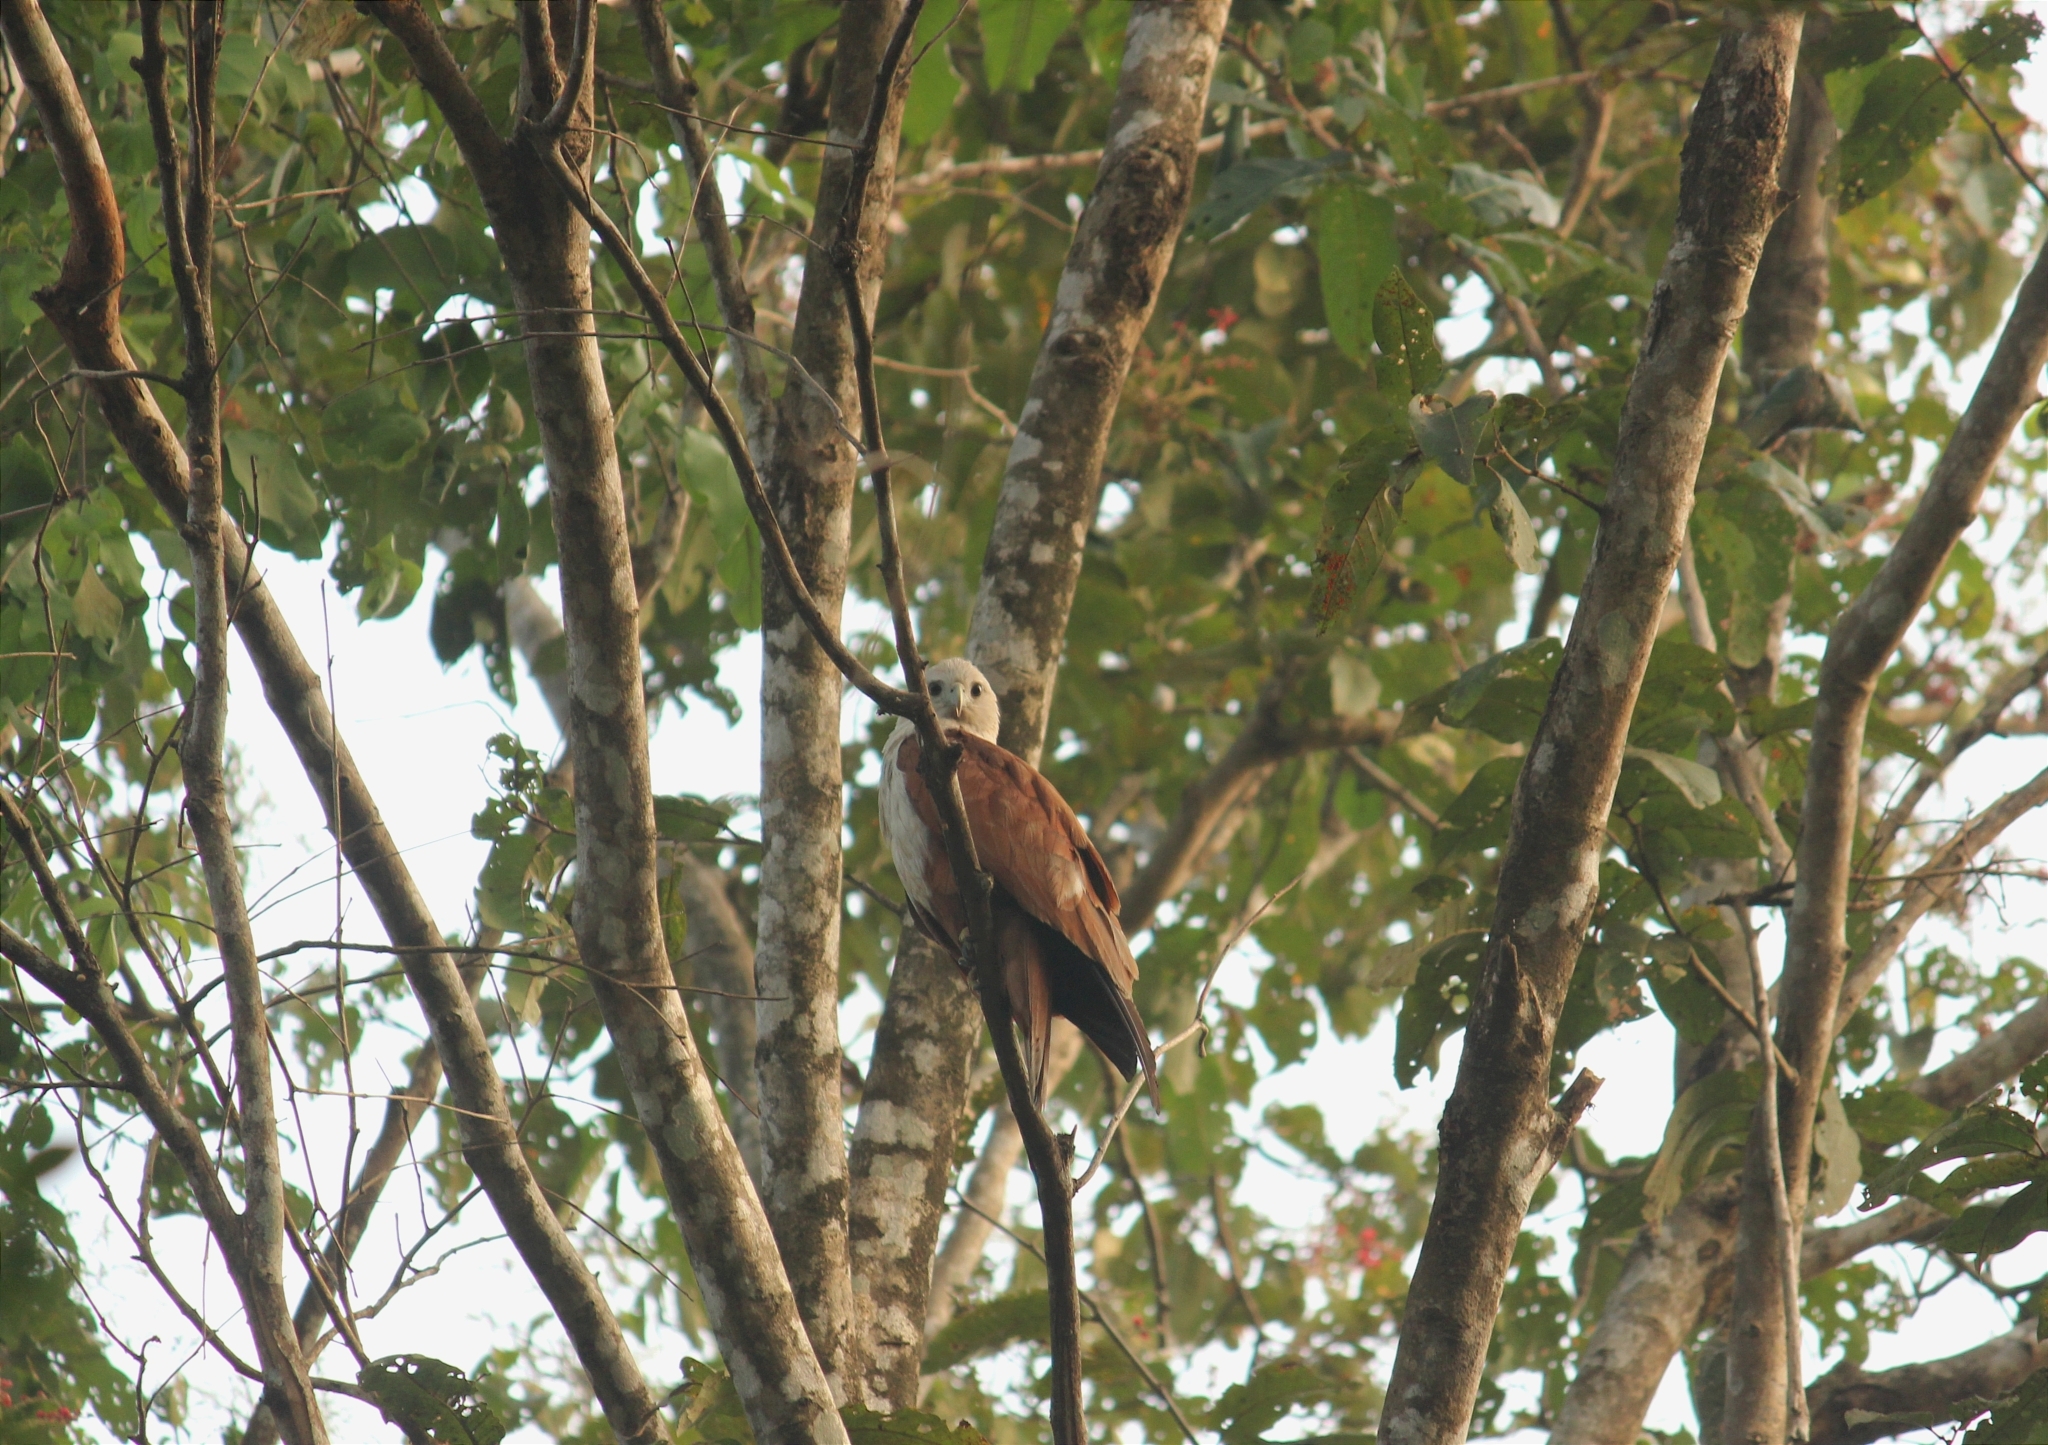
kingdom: Animalia
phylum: Chordata
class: Aves
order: Accipitriformes
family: Accipitridae
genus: Haliastur
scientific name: Haliastur indus
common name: Brahminy kite
